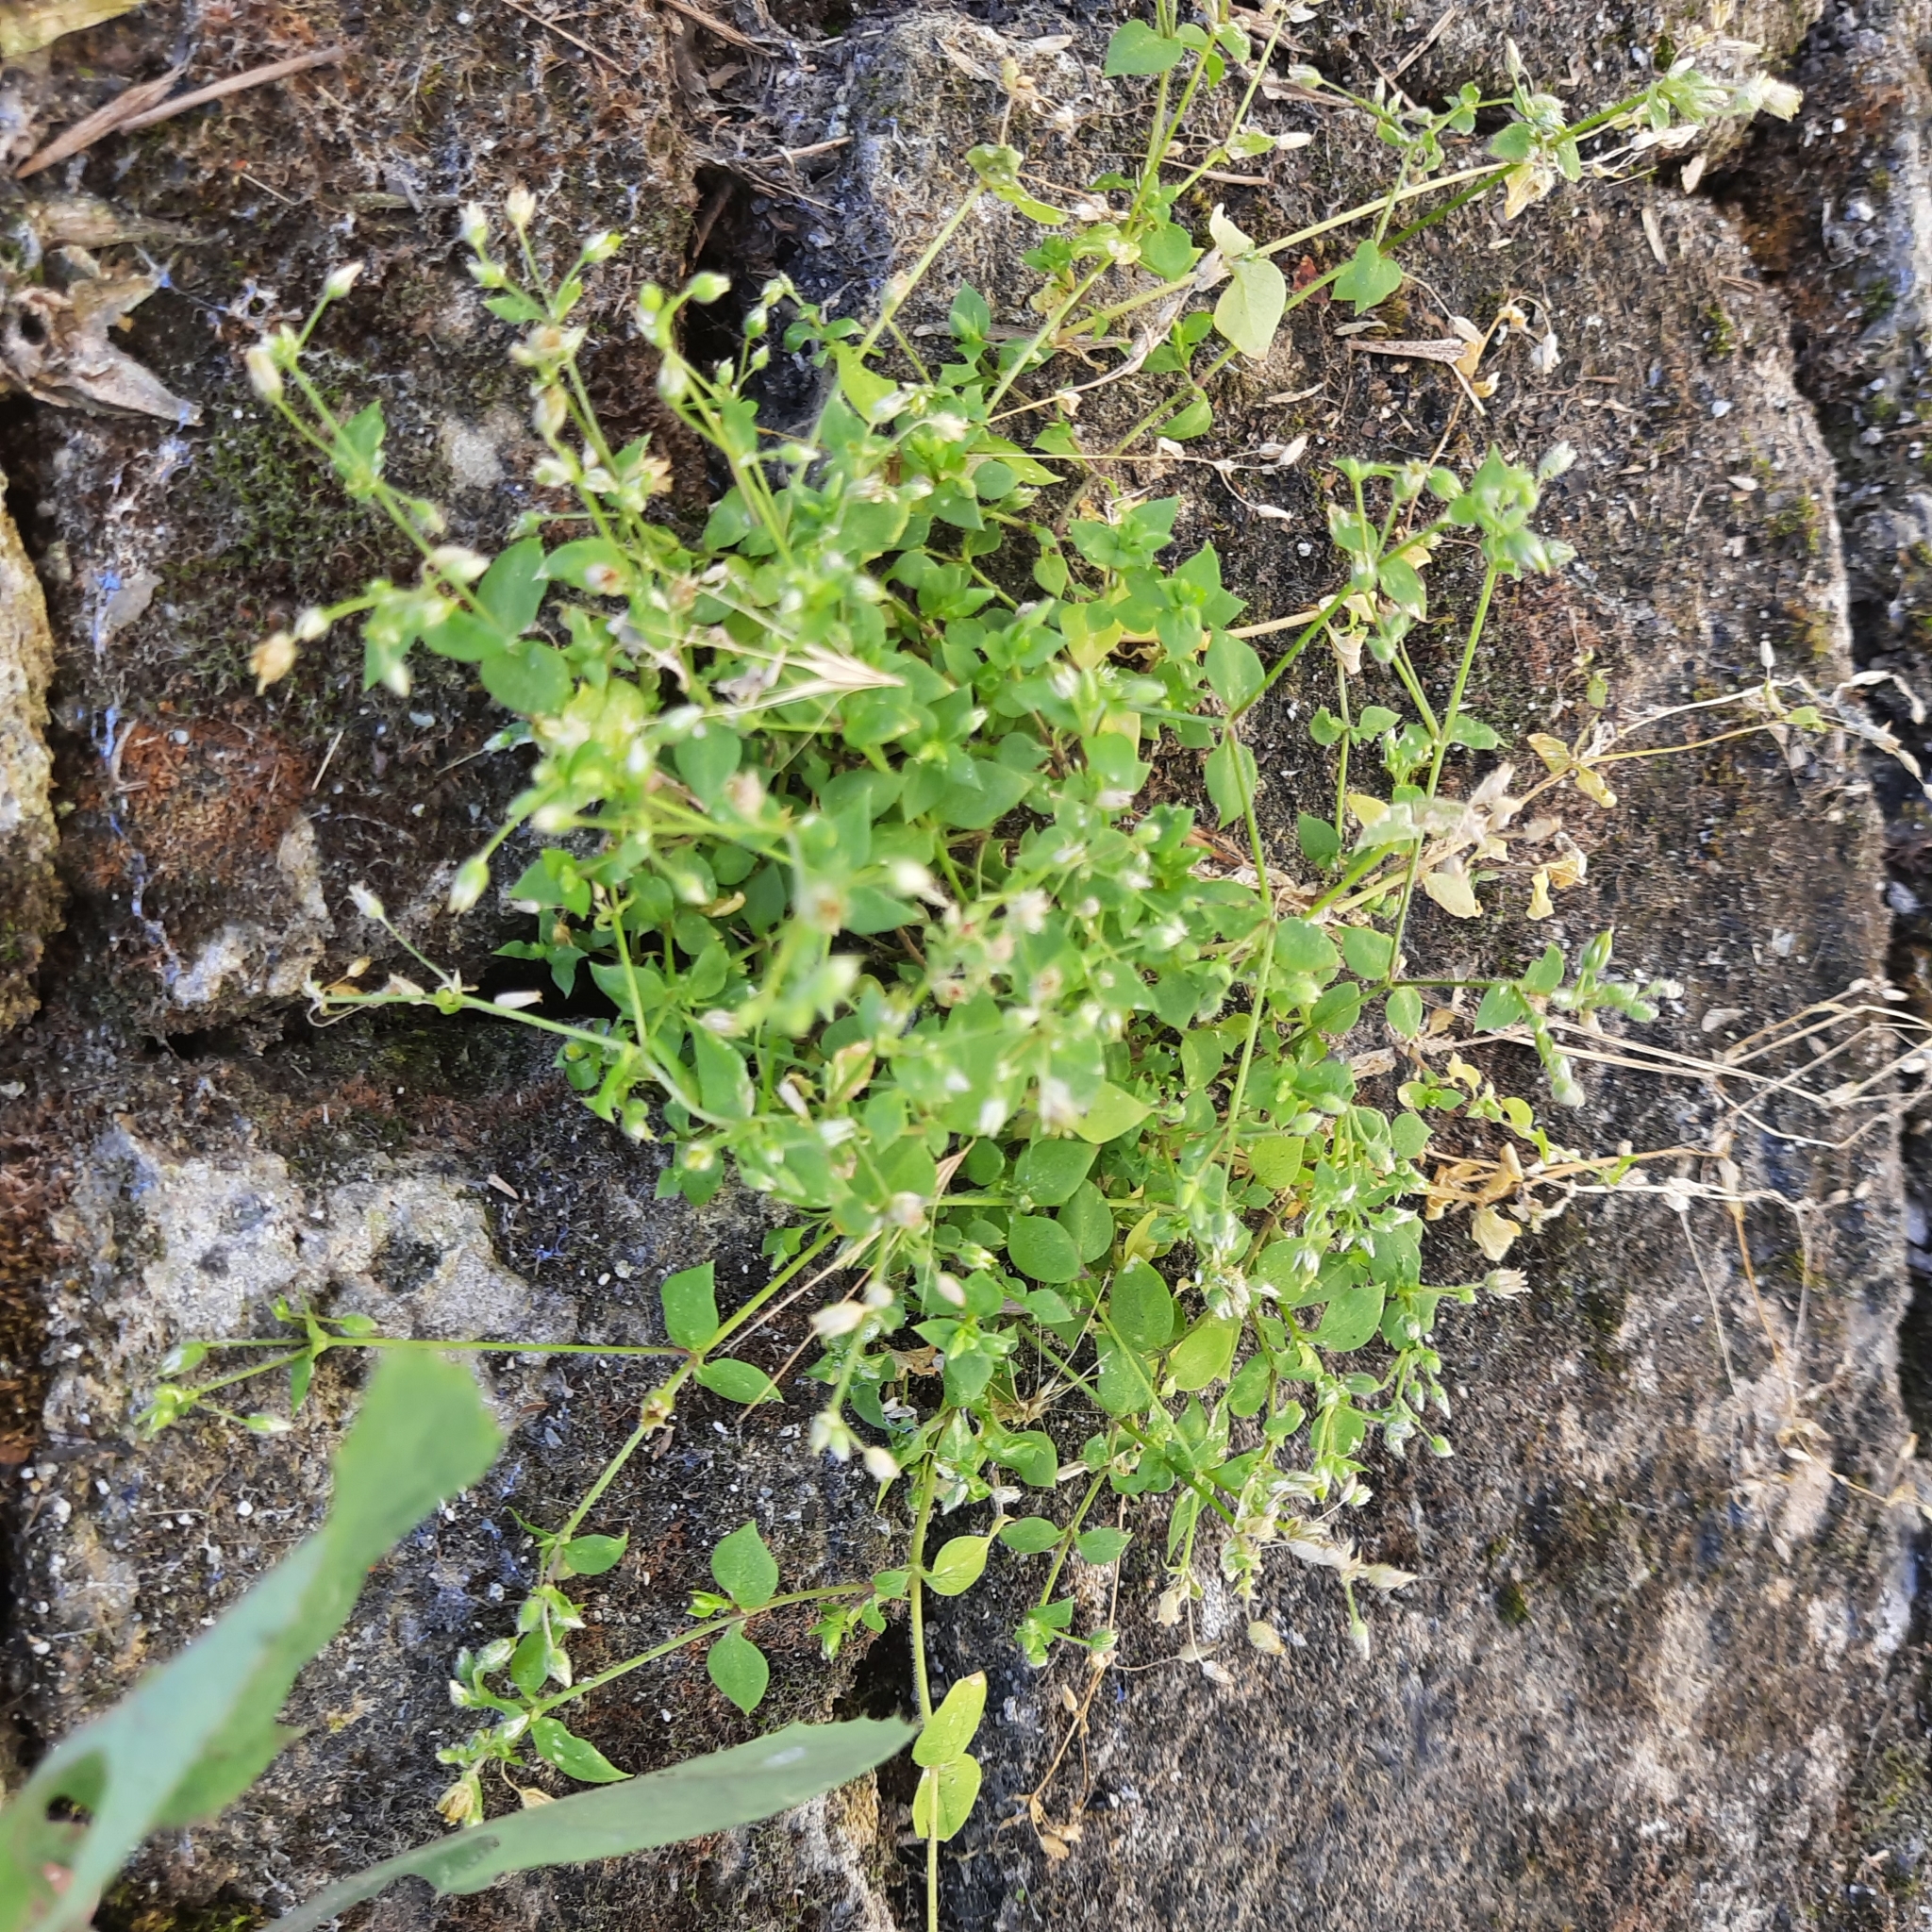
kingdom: Plantae
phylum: Tracheophyta
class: Magnoliopsida
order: Caryophyllales
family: Caryophyllaceae
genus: Stellaria
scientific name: Stellaria media
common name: Common chickweed
